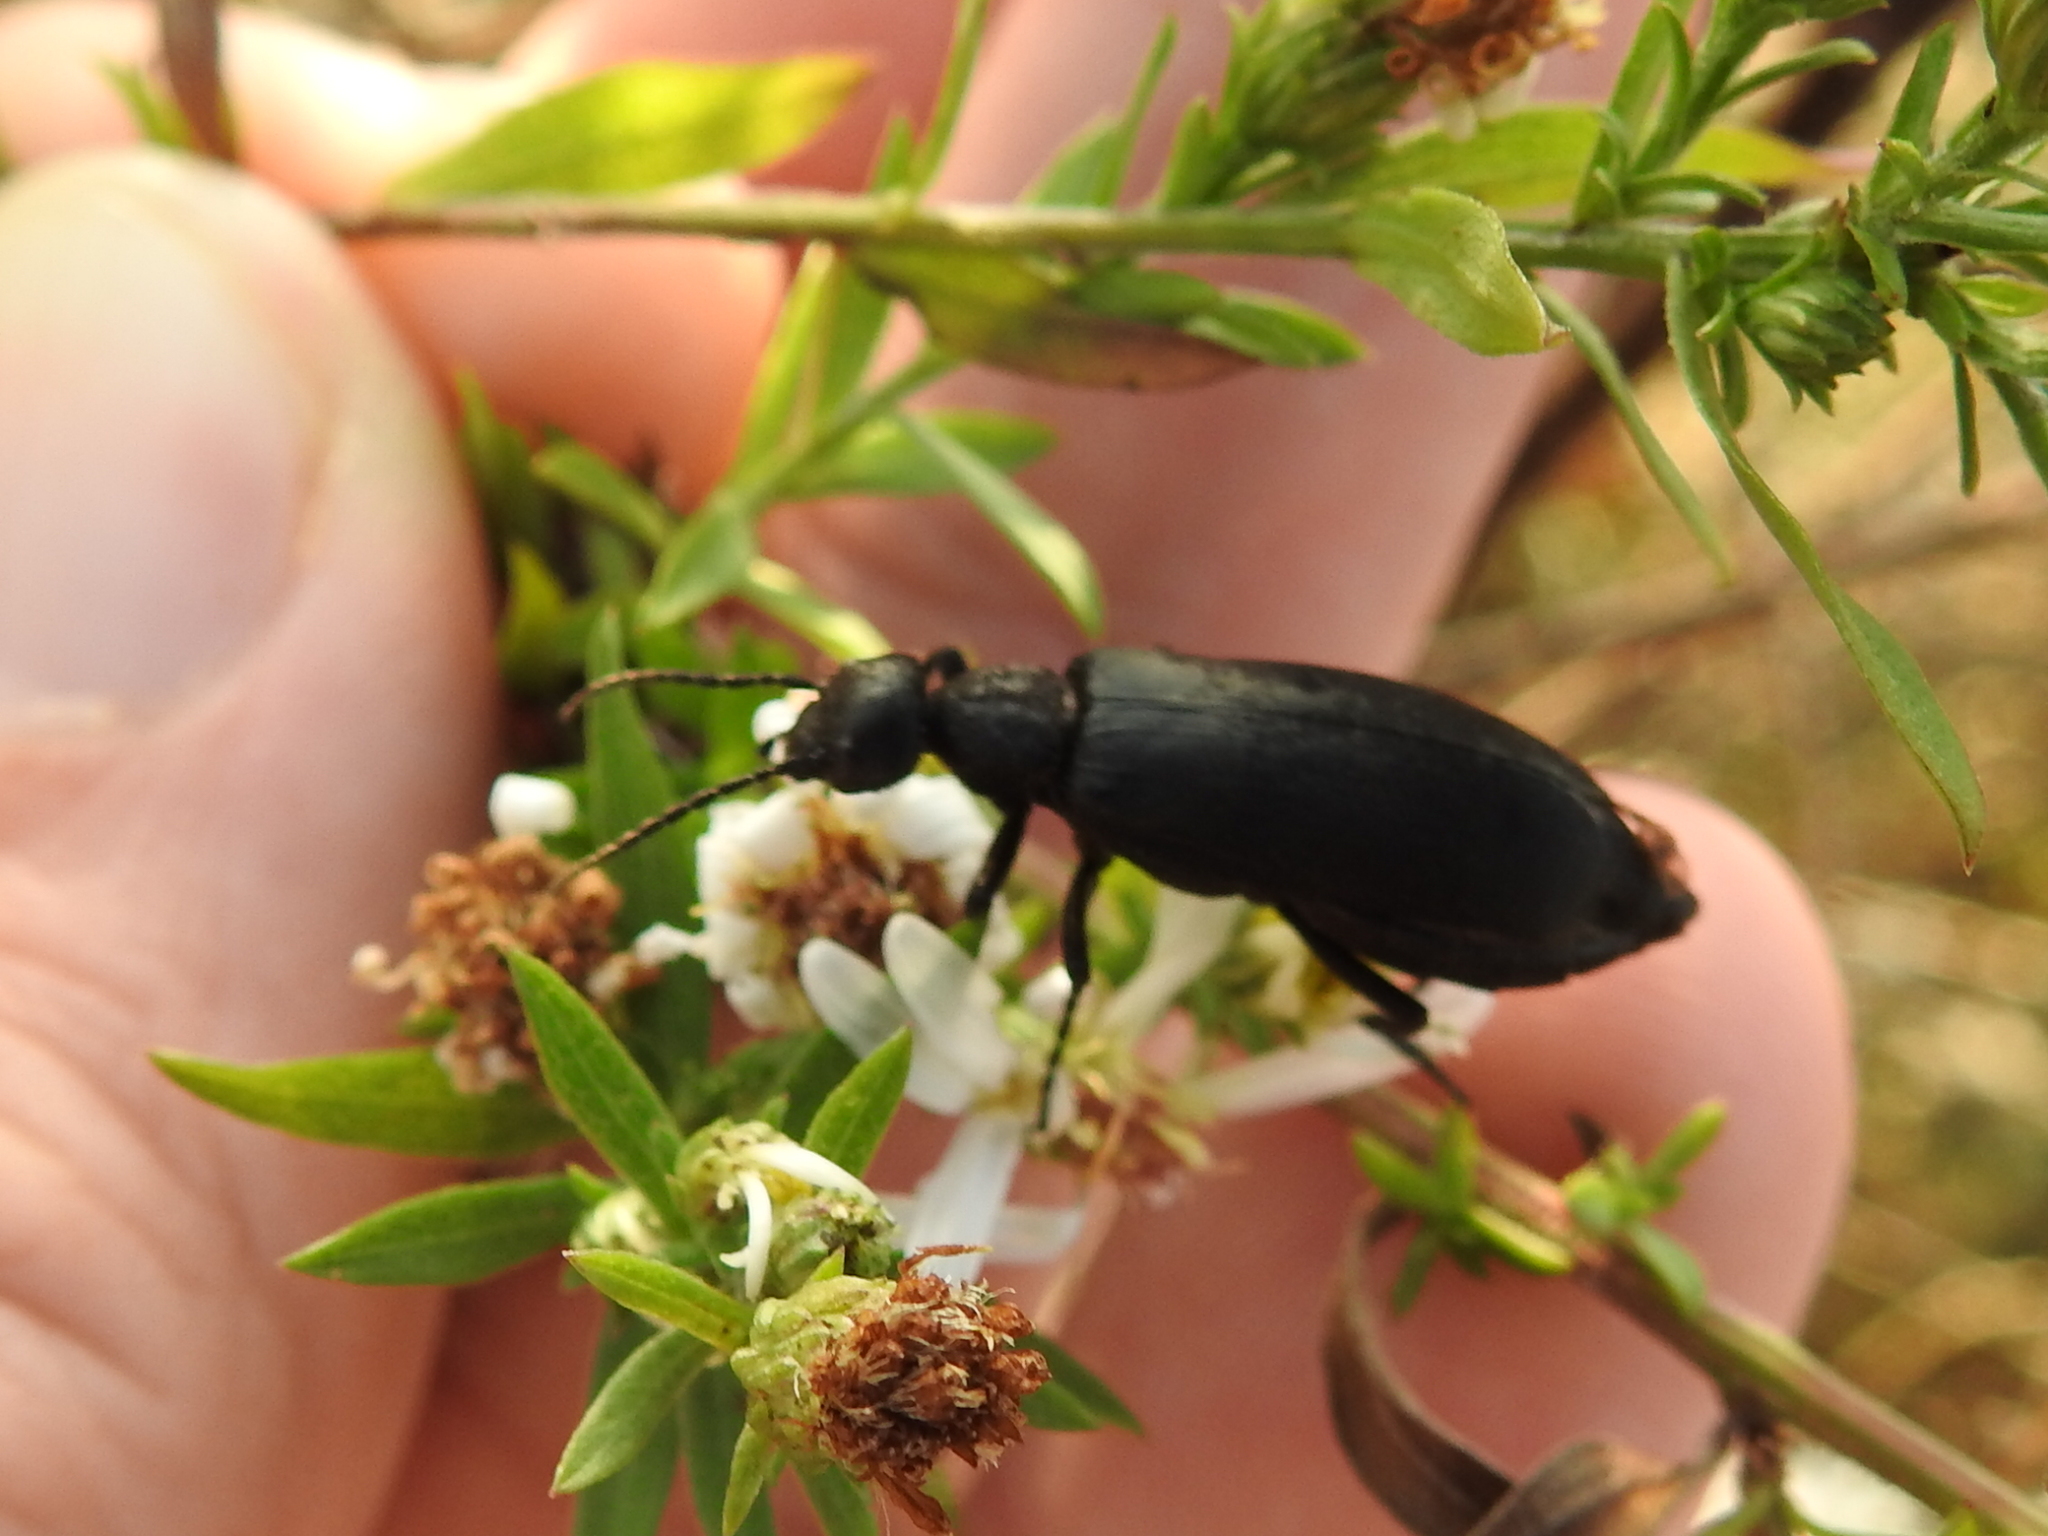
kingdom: Animalia
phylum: Arthropoda
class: Insecta
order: Coleoptera
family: Meloidae
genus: Epicauta
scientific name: Epicauta pensylvanica
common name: Black blister beetle
